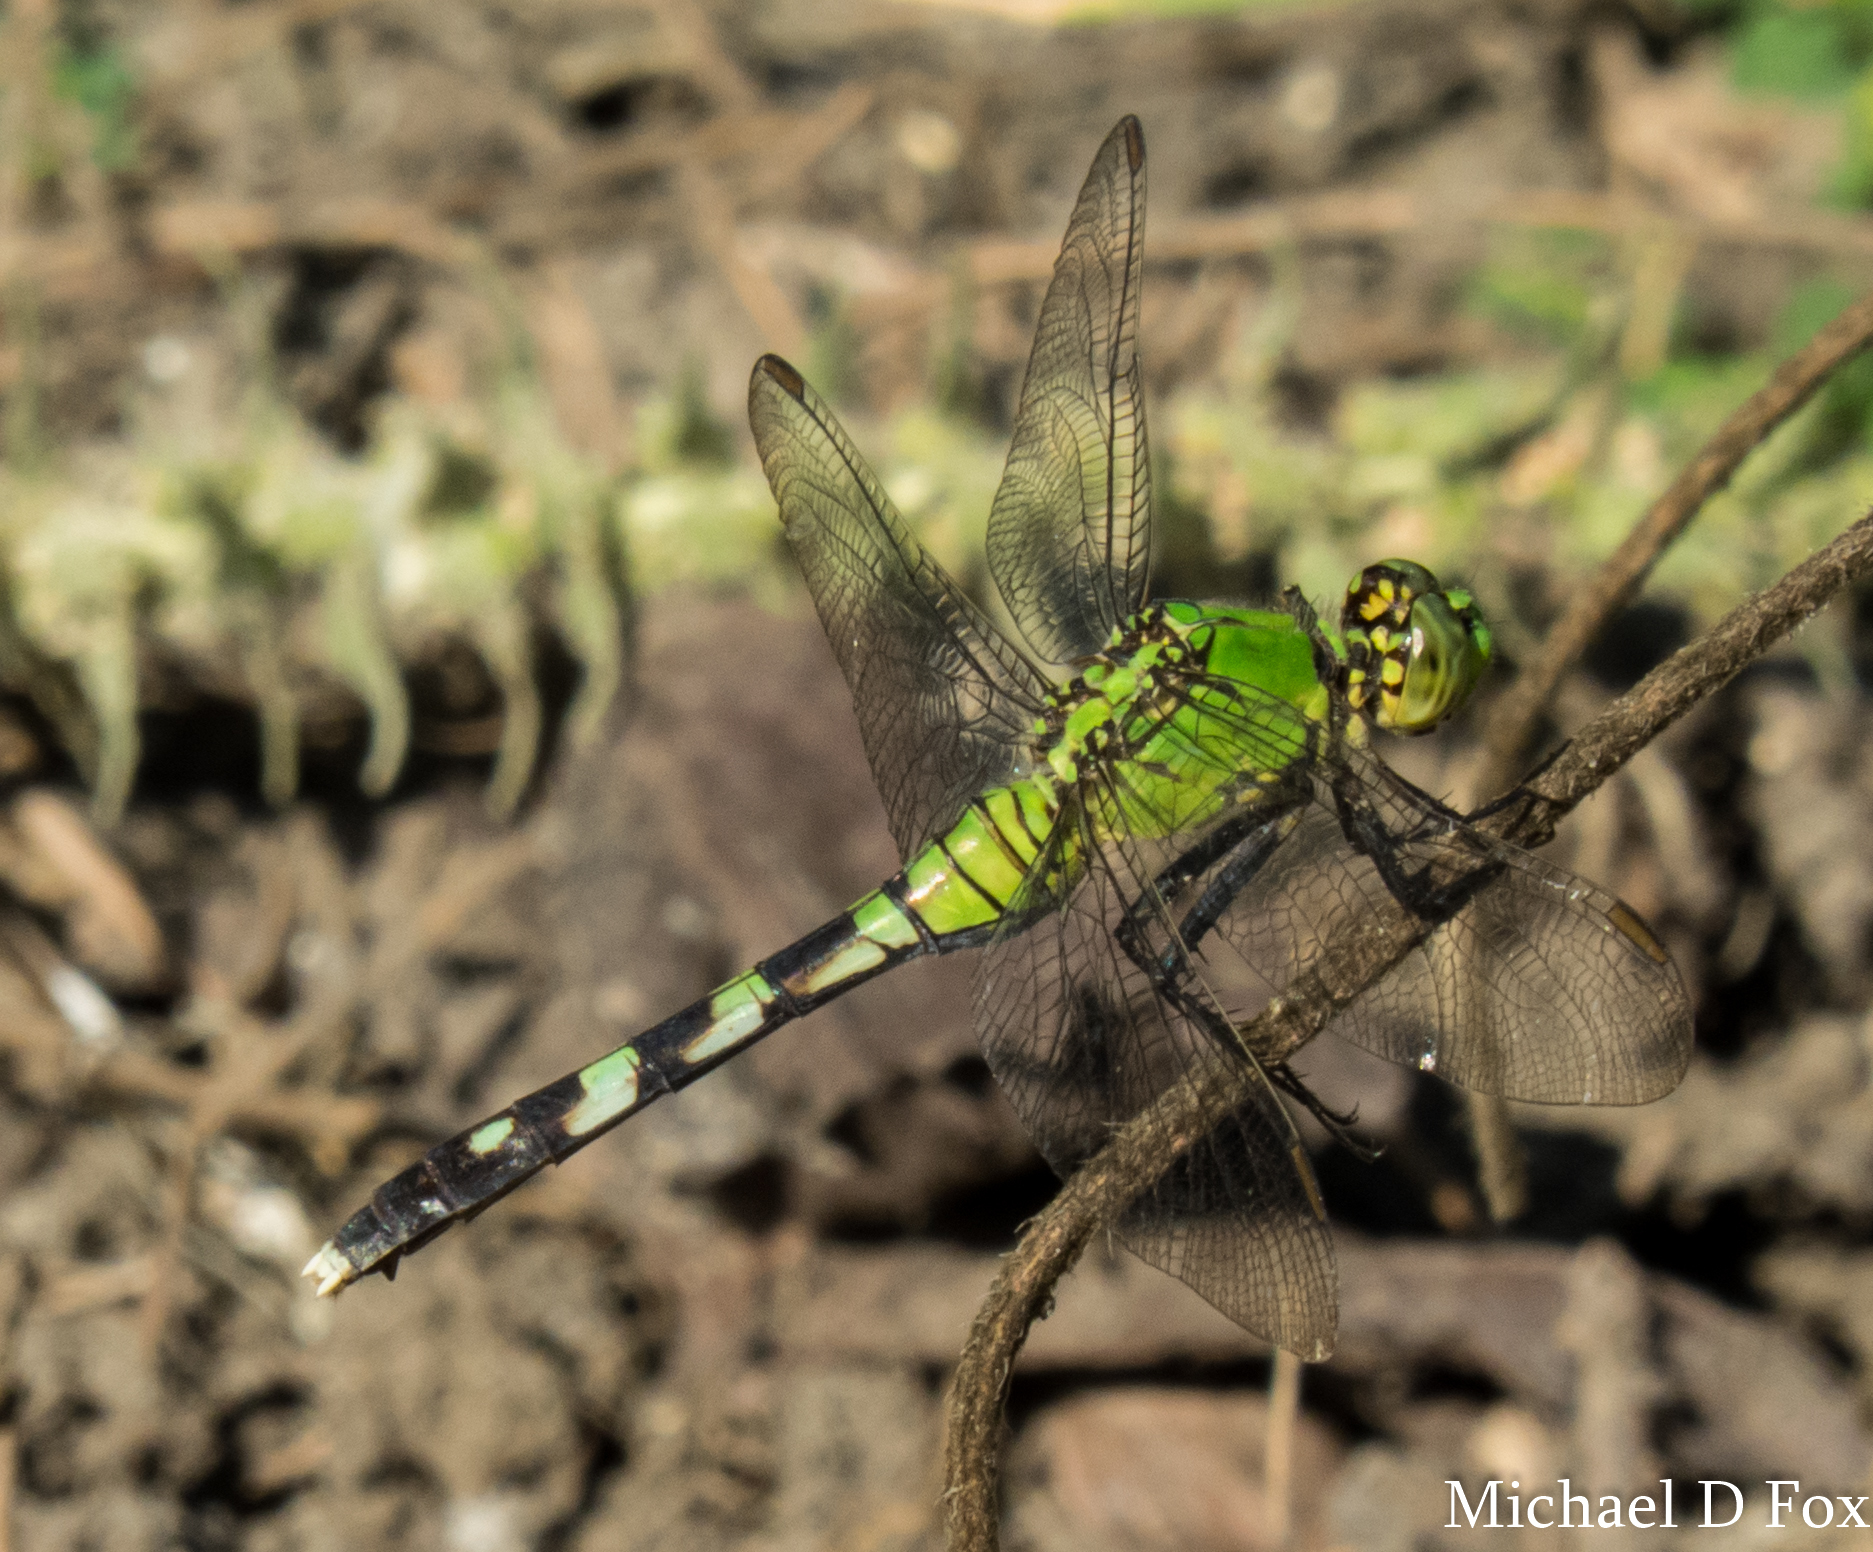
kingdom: Animalia
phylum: Arthropoda
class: Insecta
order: Odonata
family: Libellulidae
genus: Erythemis
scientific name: Erythemis simplicicollis
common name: Eastern pondhawk
